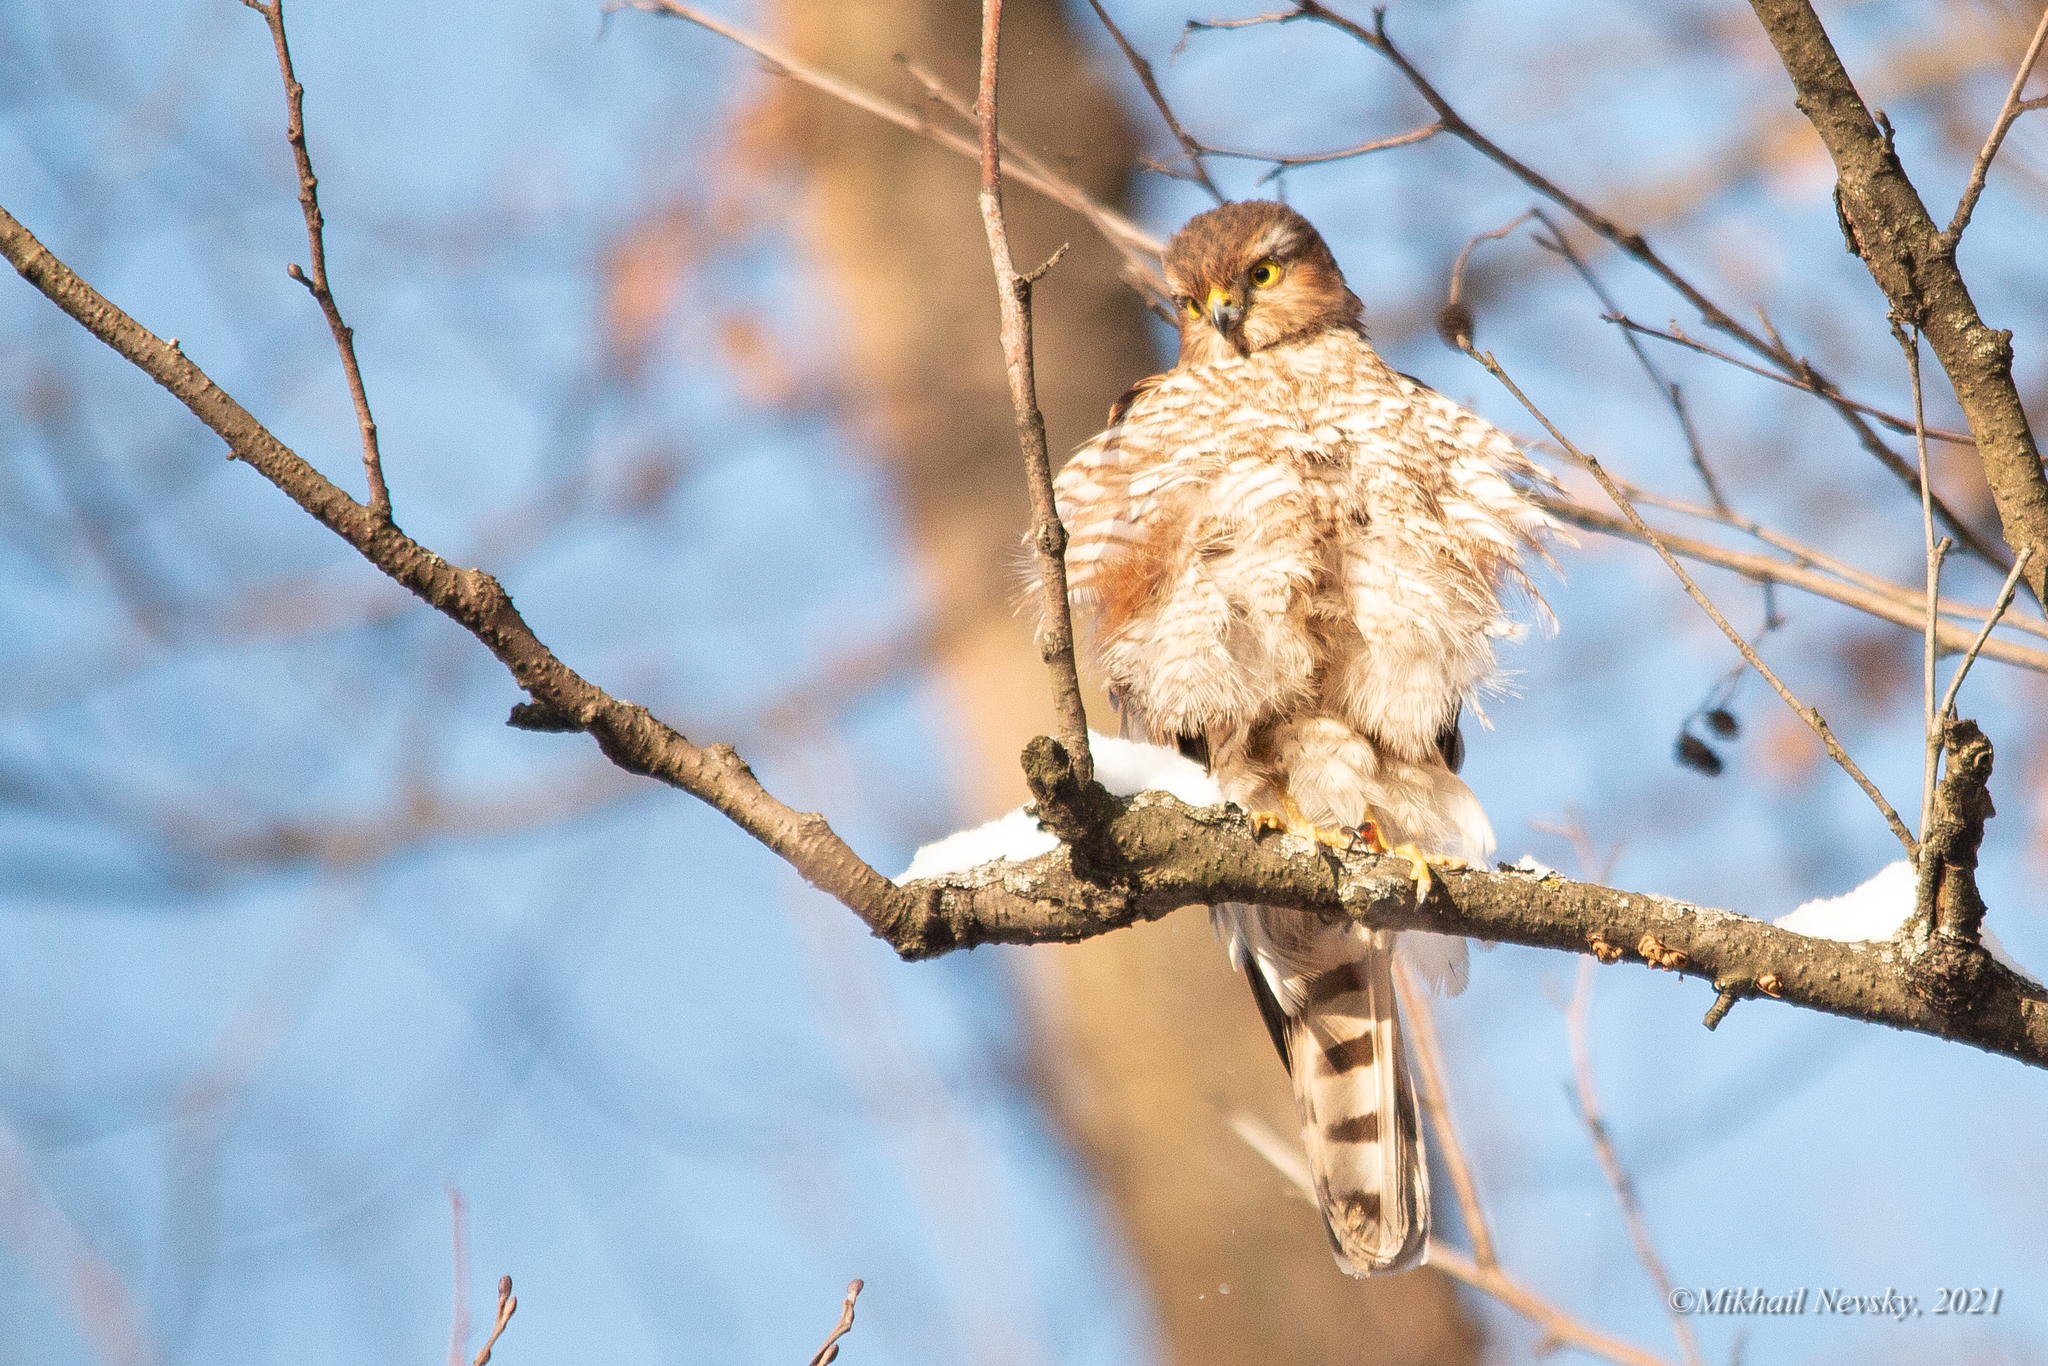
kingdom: Animalia
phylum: Chordata
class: Aves
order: Accipitriformes
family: Accipitridae
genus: Accipiter
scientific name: Accipiter nisus
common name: Eurasian sparrowhawk
